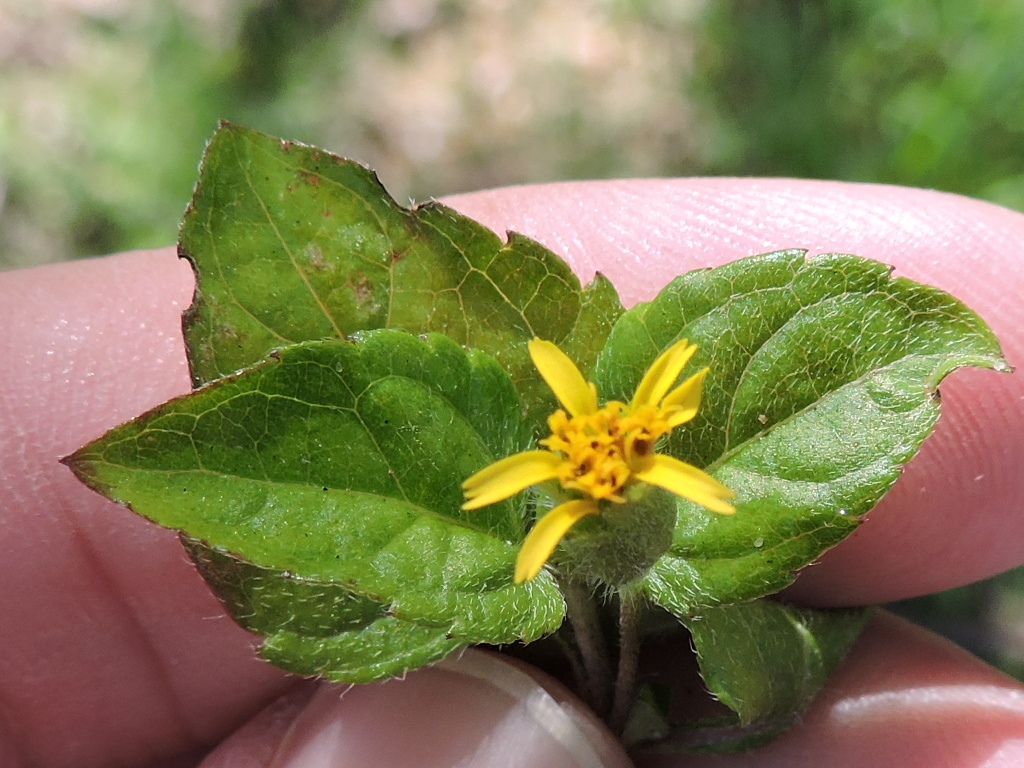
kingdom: Plantae
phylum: Tracheophyta
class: Magnoliopsida
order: Asterales
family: Asteraceae
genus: Calyptocarpus
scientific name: Calyptocarpus vialis
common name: Straggler daisy
